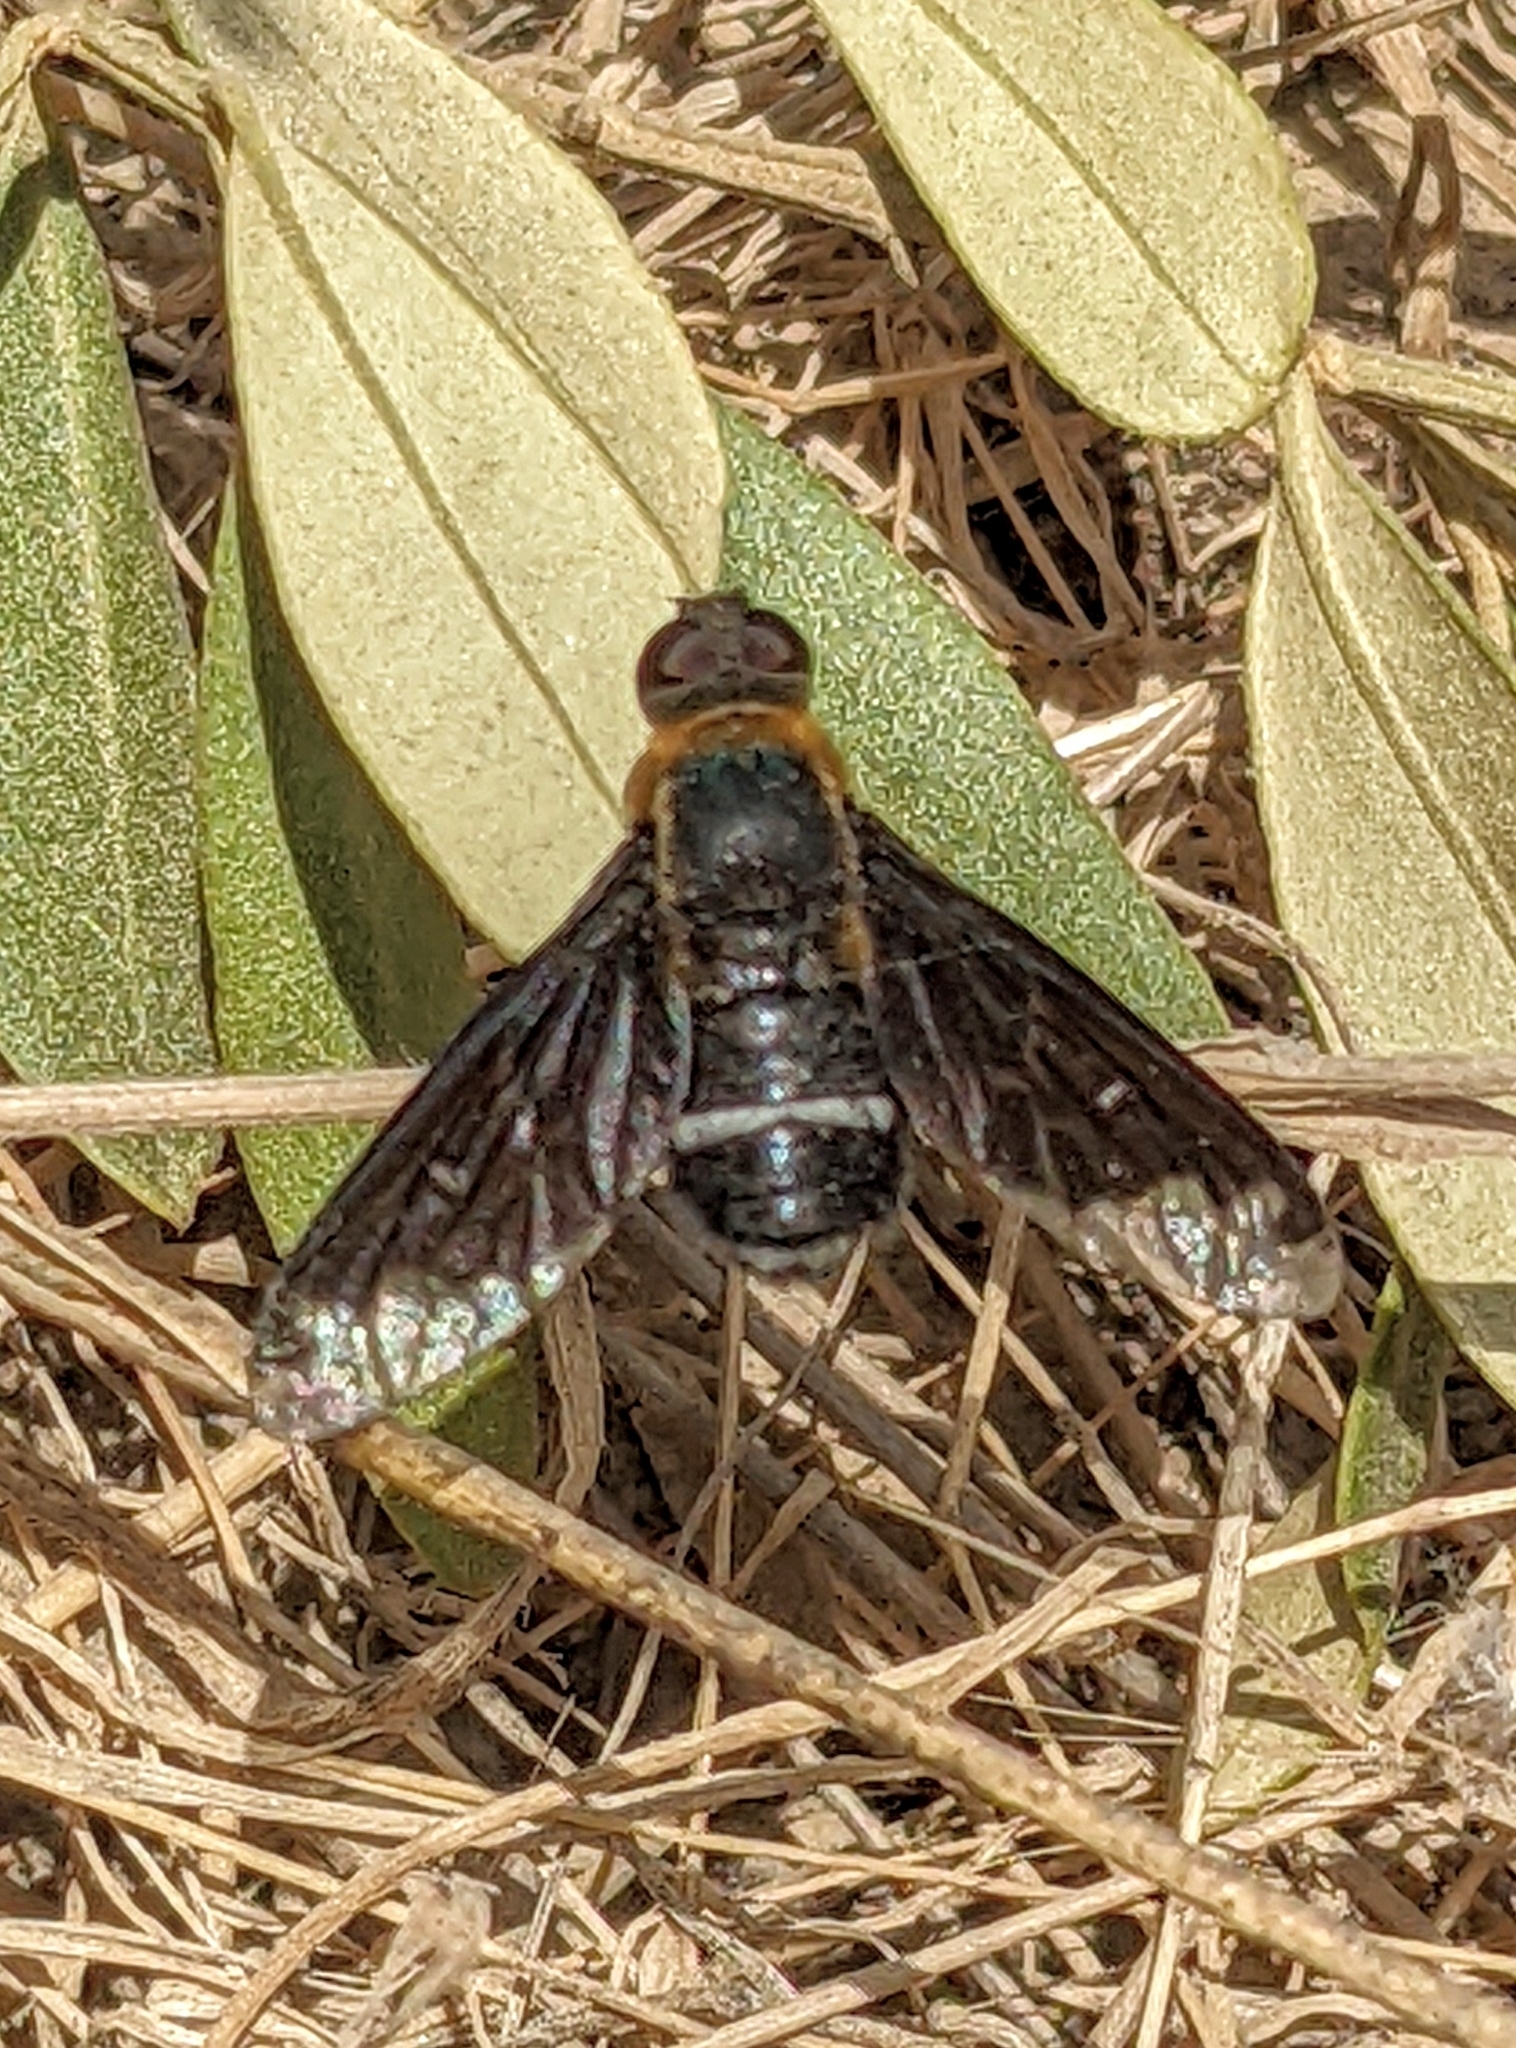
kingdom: Animalia
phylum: Arthropoda
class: Insecta
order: Diptera
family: Bombyliidae
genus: Hemipenthes
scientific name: Hemipenthes velutina
